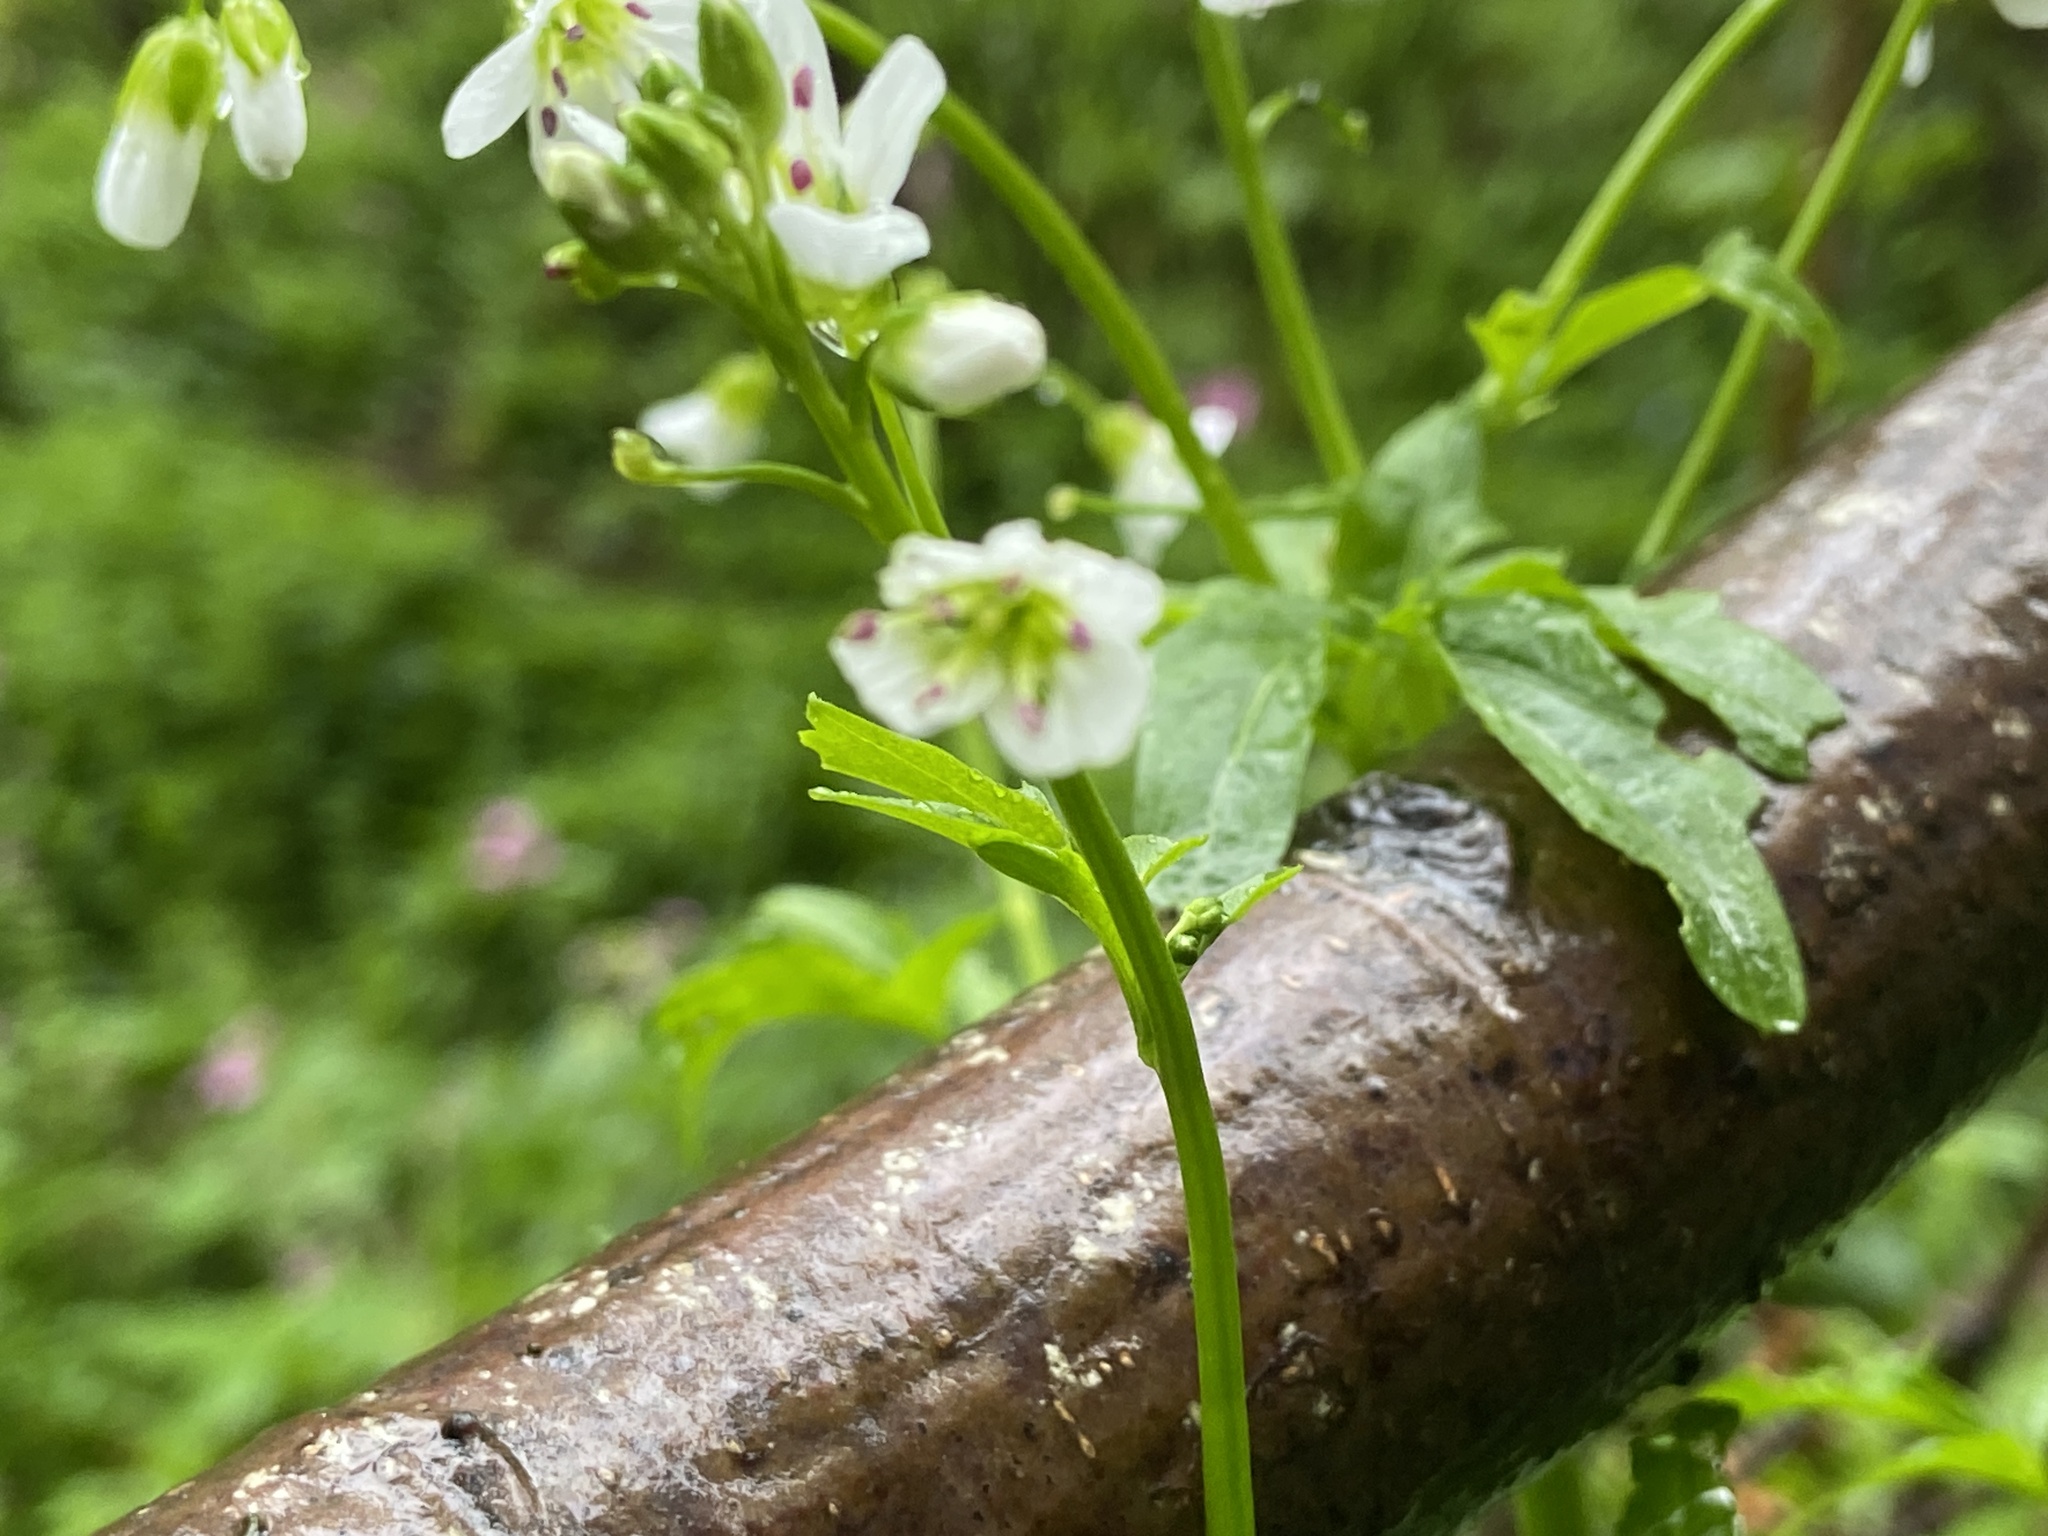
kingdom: Plantae
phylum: Tracheophyta
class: Magnoliopsida
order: Brassicales
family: Brassicaceae
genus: Cardamine
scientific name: Cardamine amara
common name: Large bitter-cress
